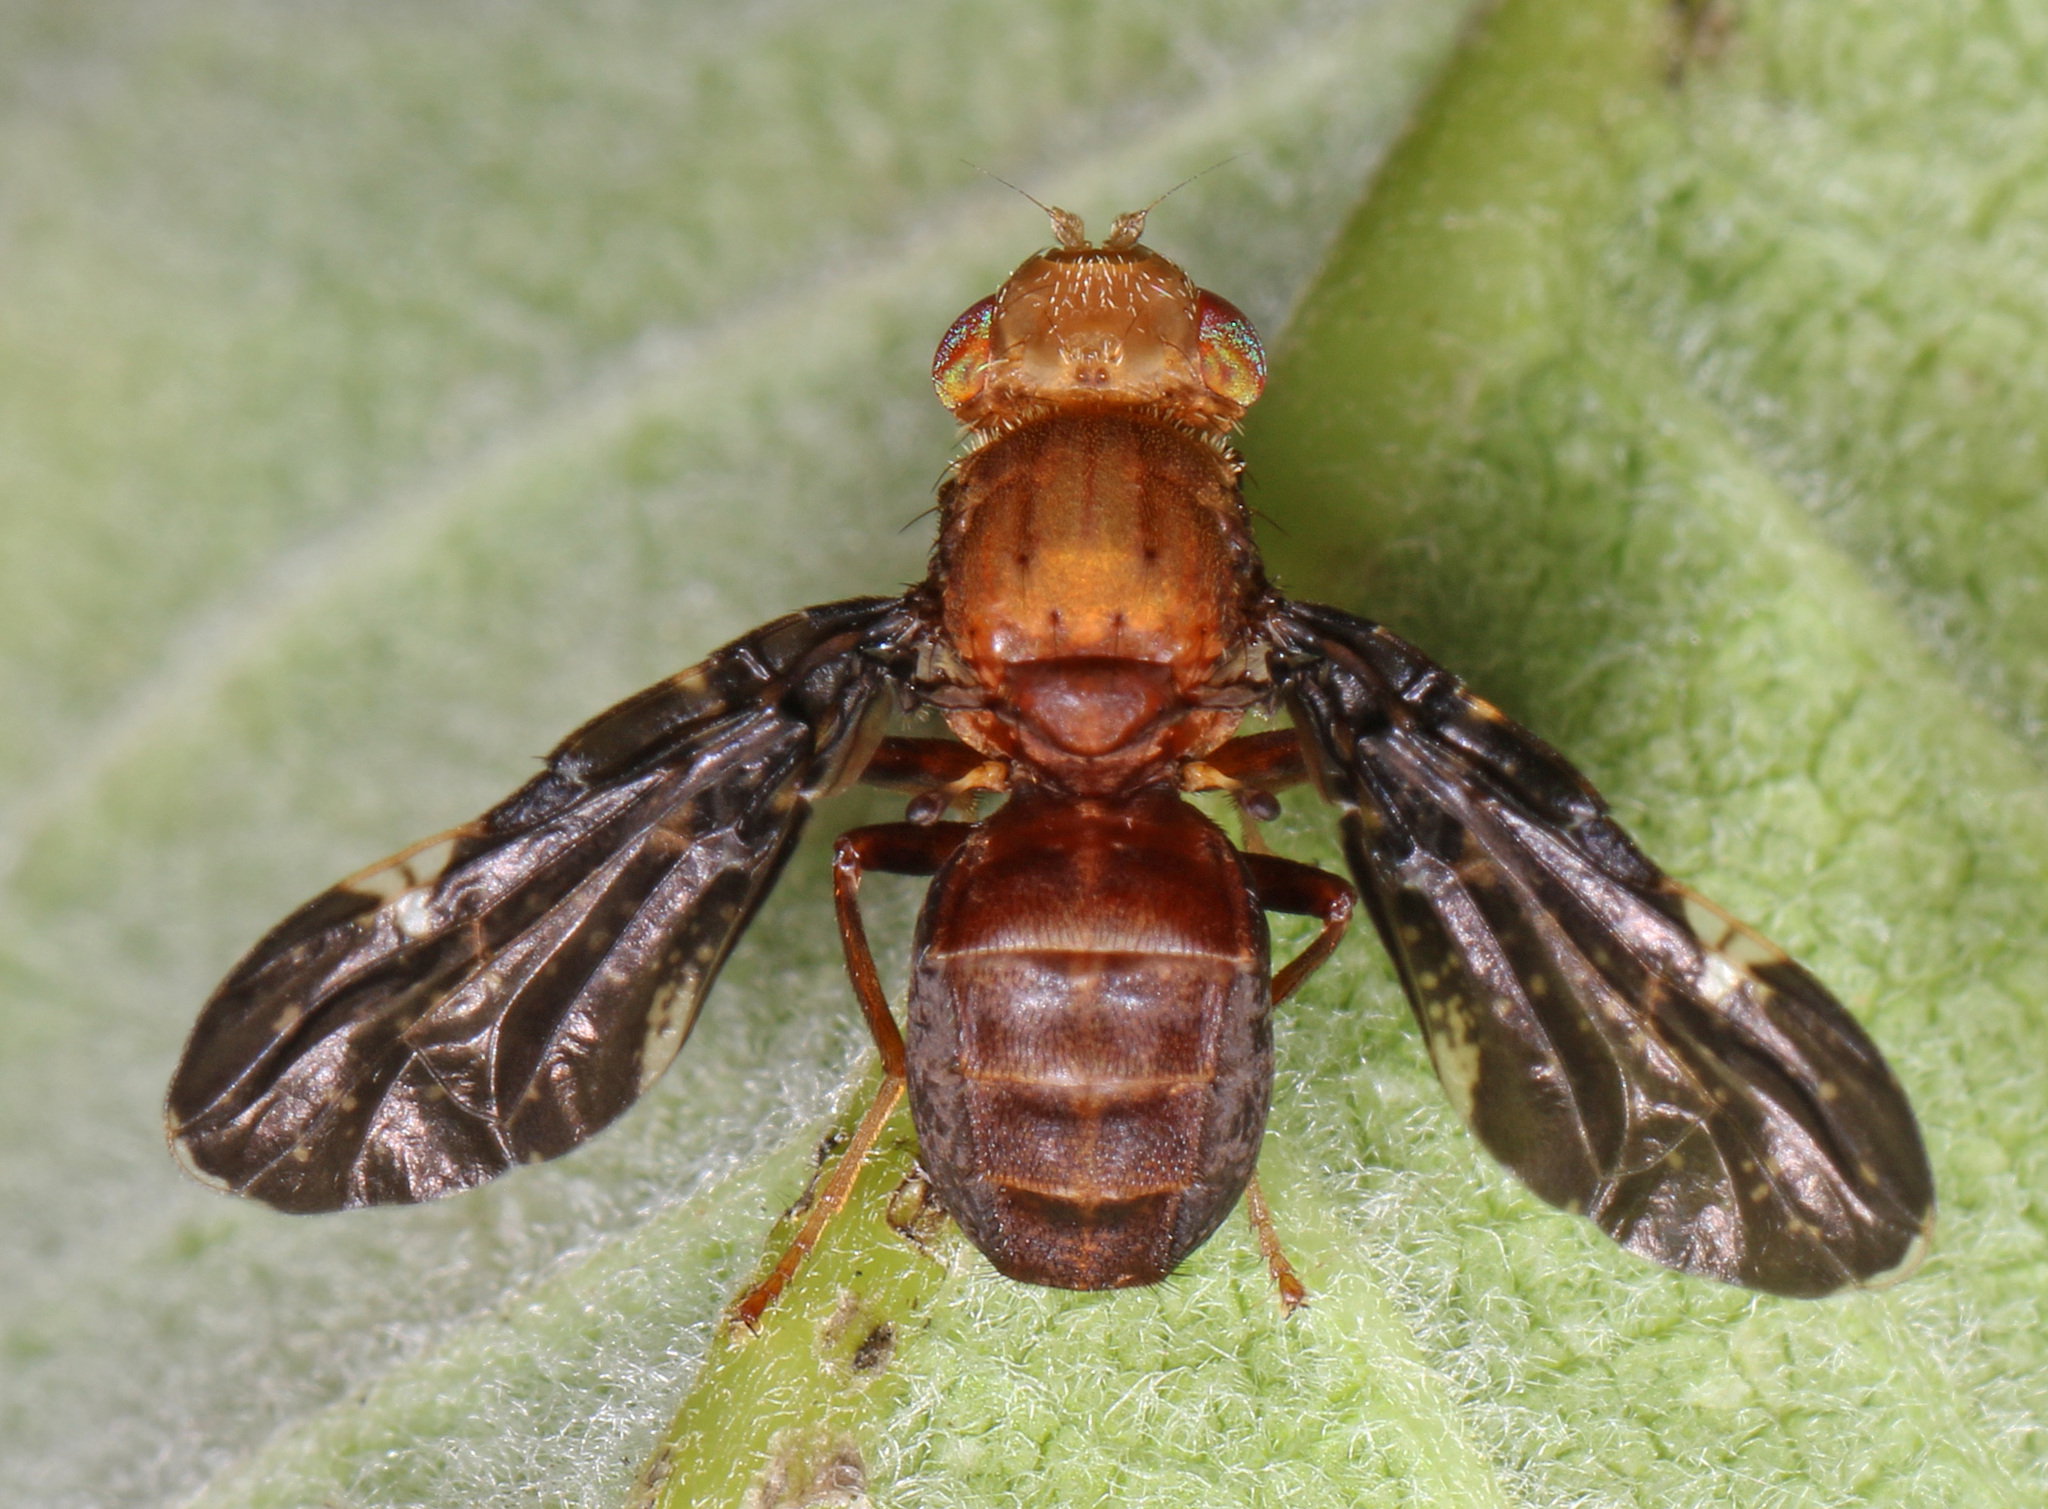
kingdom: Animalia
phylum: Arthropoda
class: Insecta
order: Diptera
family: Tephritidae
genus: Eurosta
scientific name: Eurosta comma
